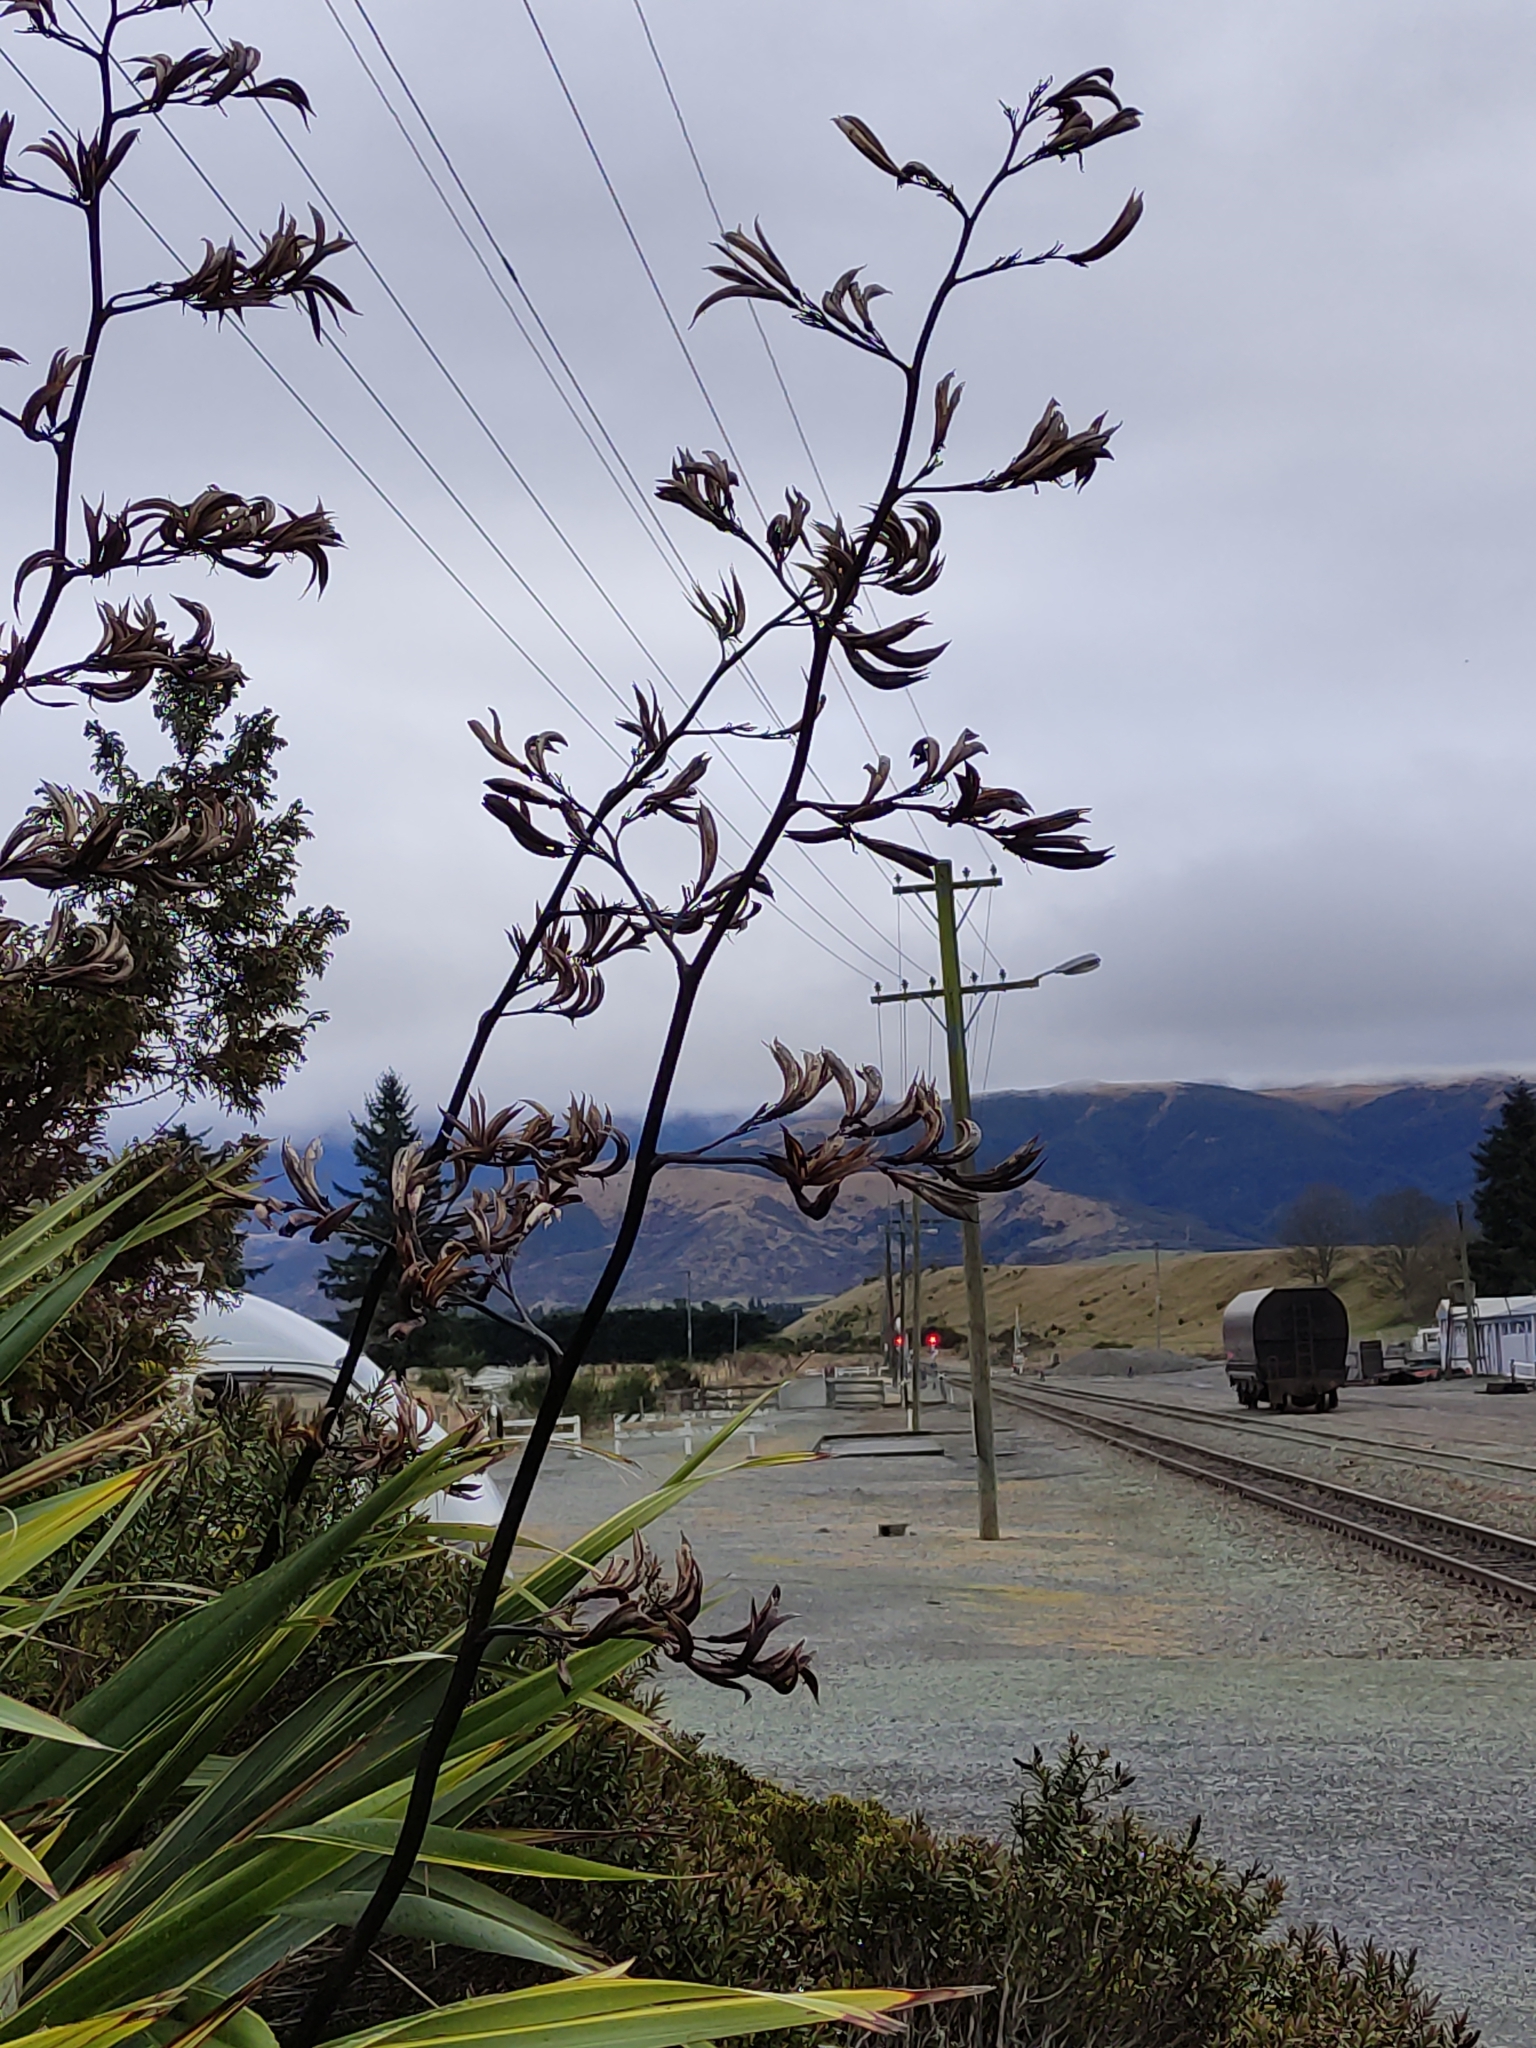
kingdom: Plantae
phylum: Tracheophyta
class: Liliopsida
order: Asparagales
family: Asphodelaceae
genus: Phormium
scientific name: Phormium tenax
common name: New zealand flax
